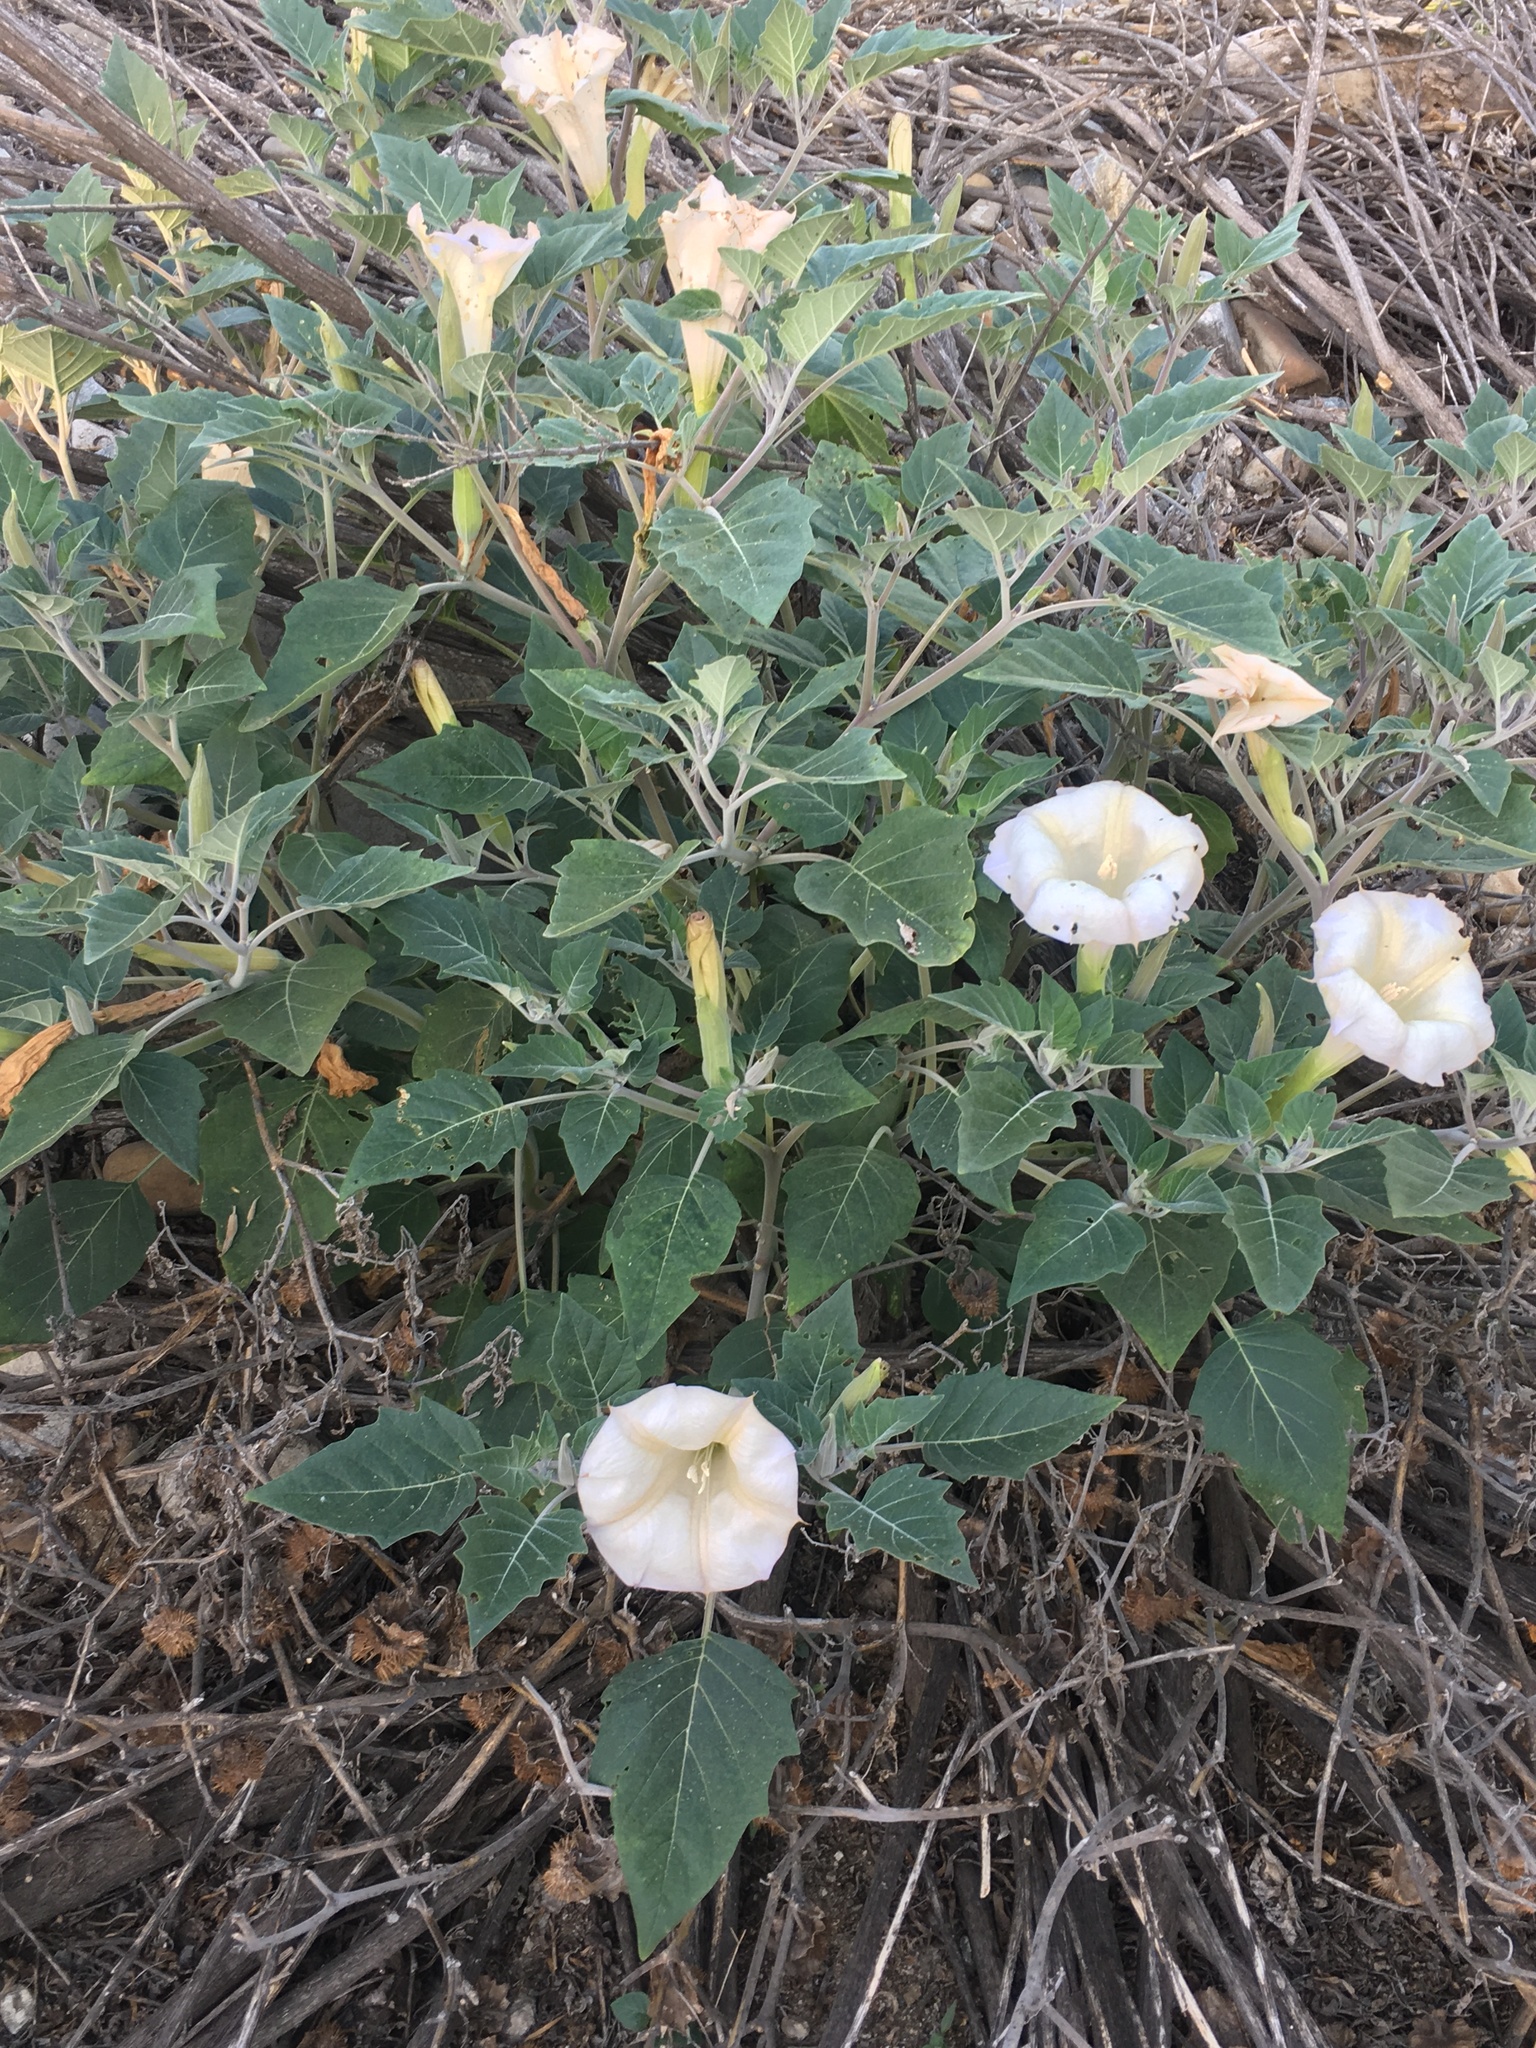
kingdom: Plantae
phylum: Tracheophyta
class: Magnoliopsida
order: Solanales
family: Solanaceae
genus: Datura
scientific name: Datura wrightii
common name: Sacred thorn-apple
